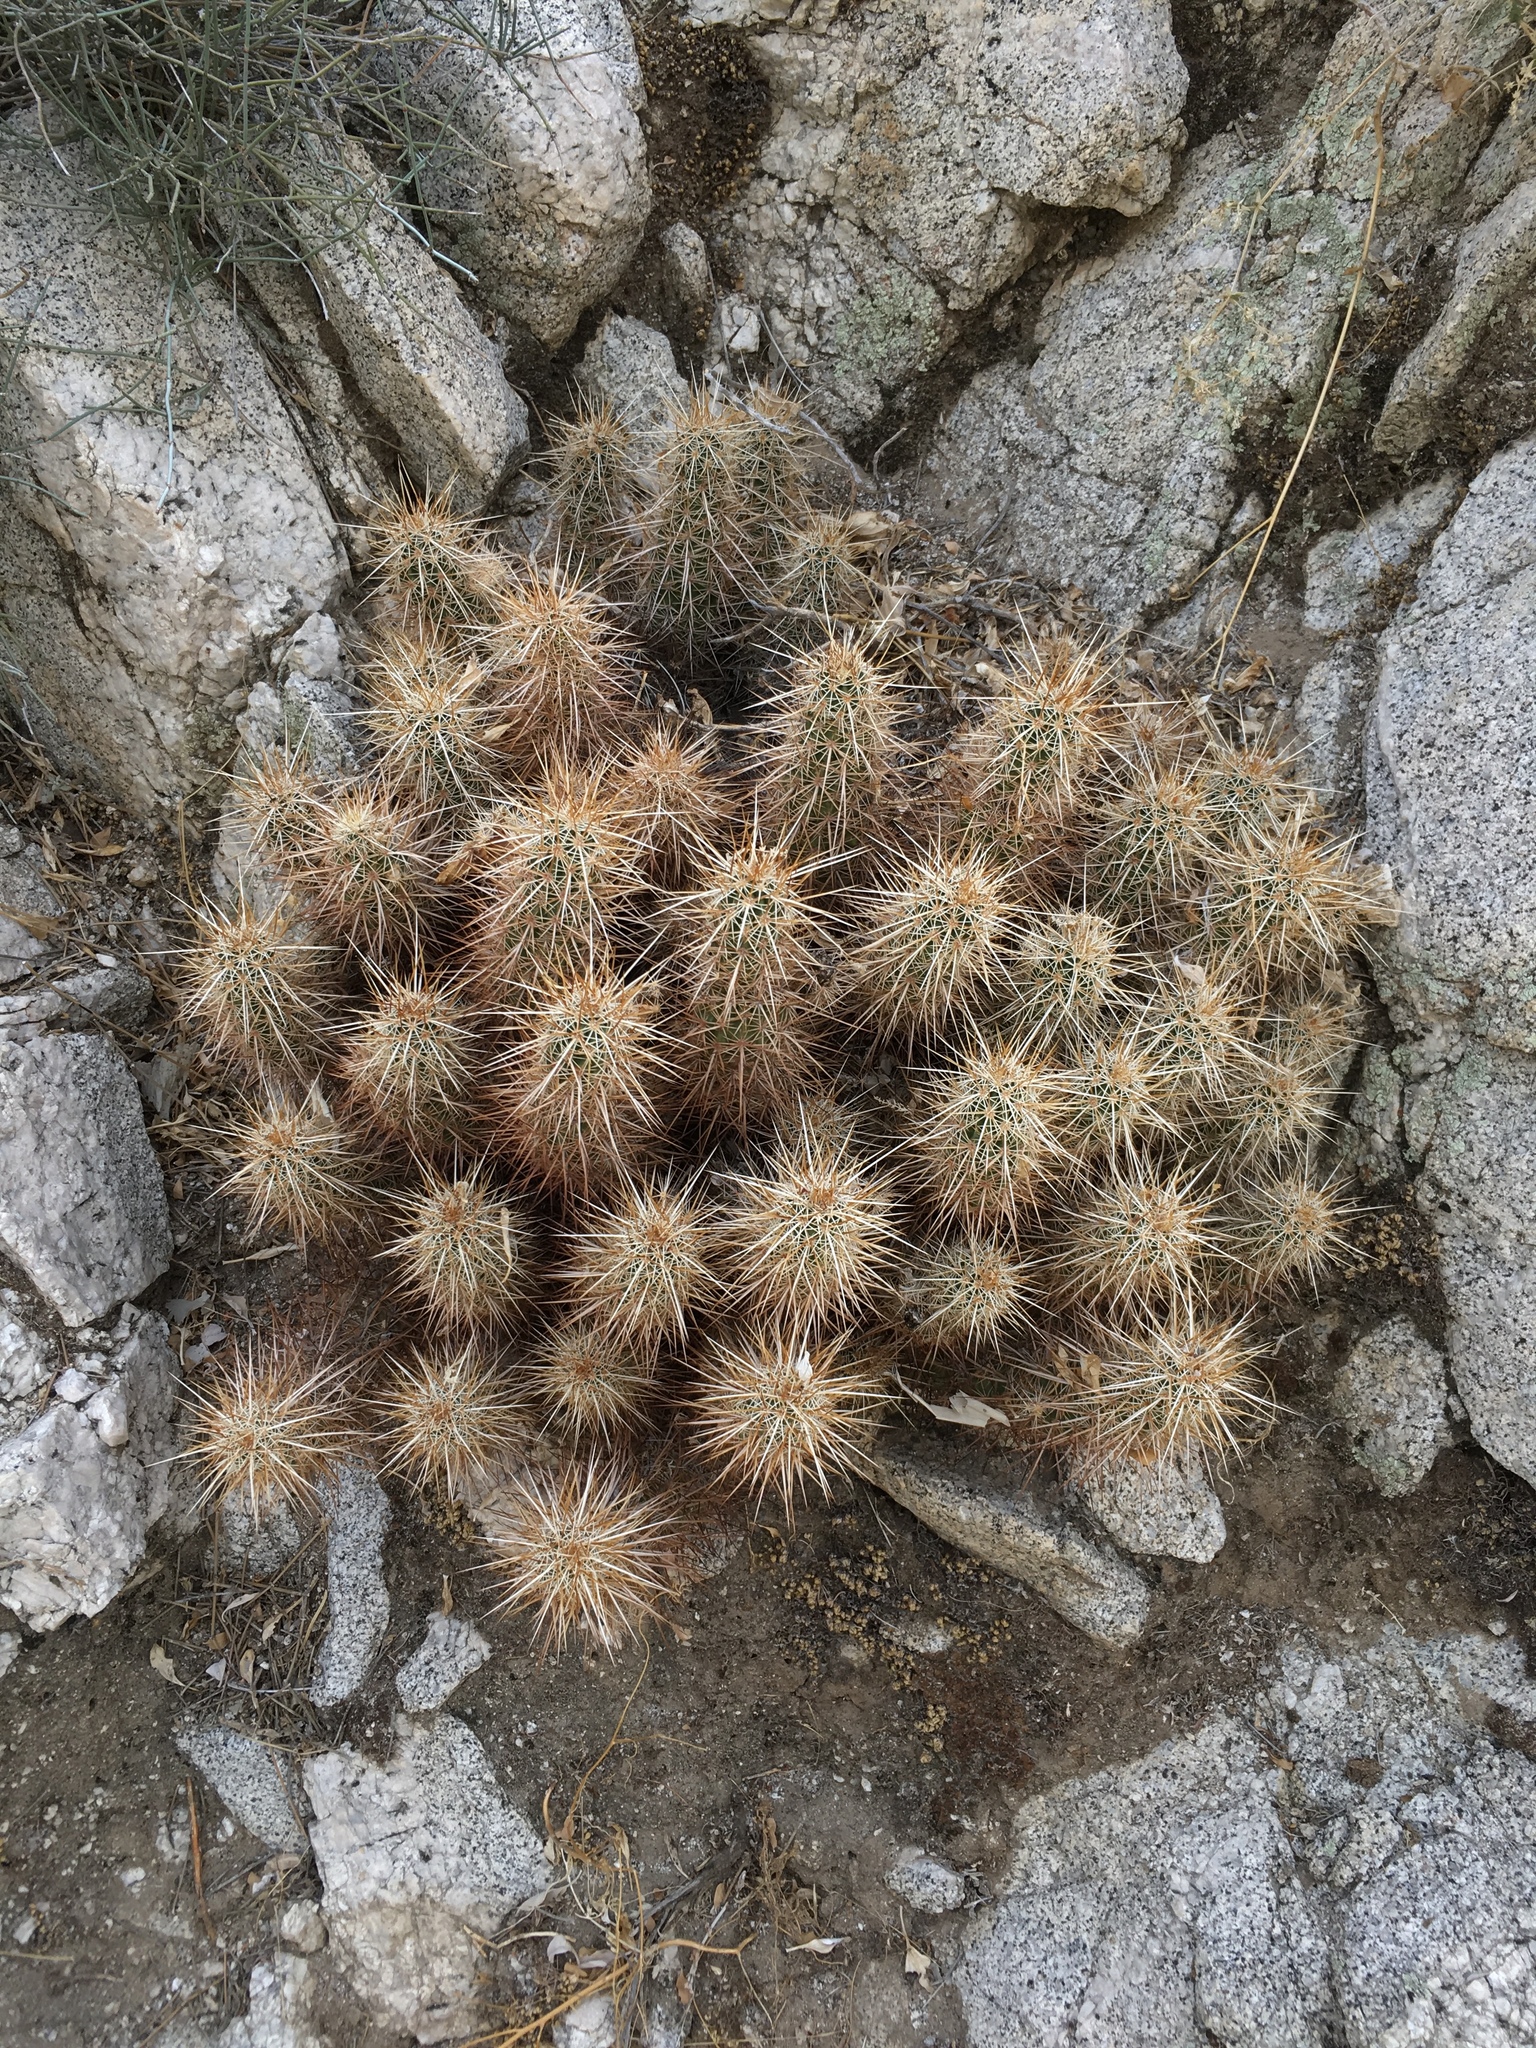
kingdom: Plantae
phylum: Tracheophyta
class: Magnoliopsida
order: Caryophyllales
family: Cactaceae
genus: Echinocereus
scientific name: Echinocereus engelmannii
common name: Engelmann's hedgehog cactus
